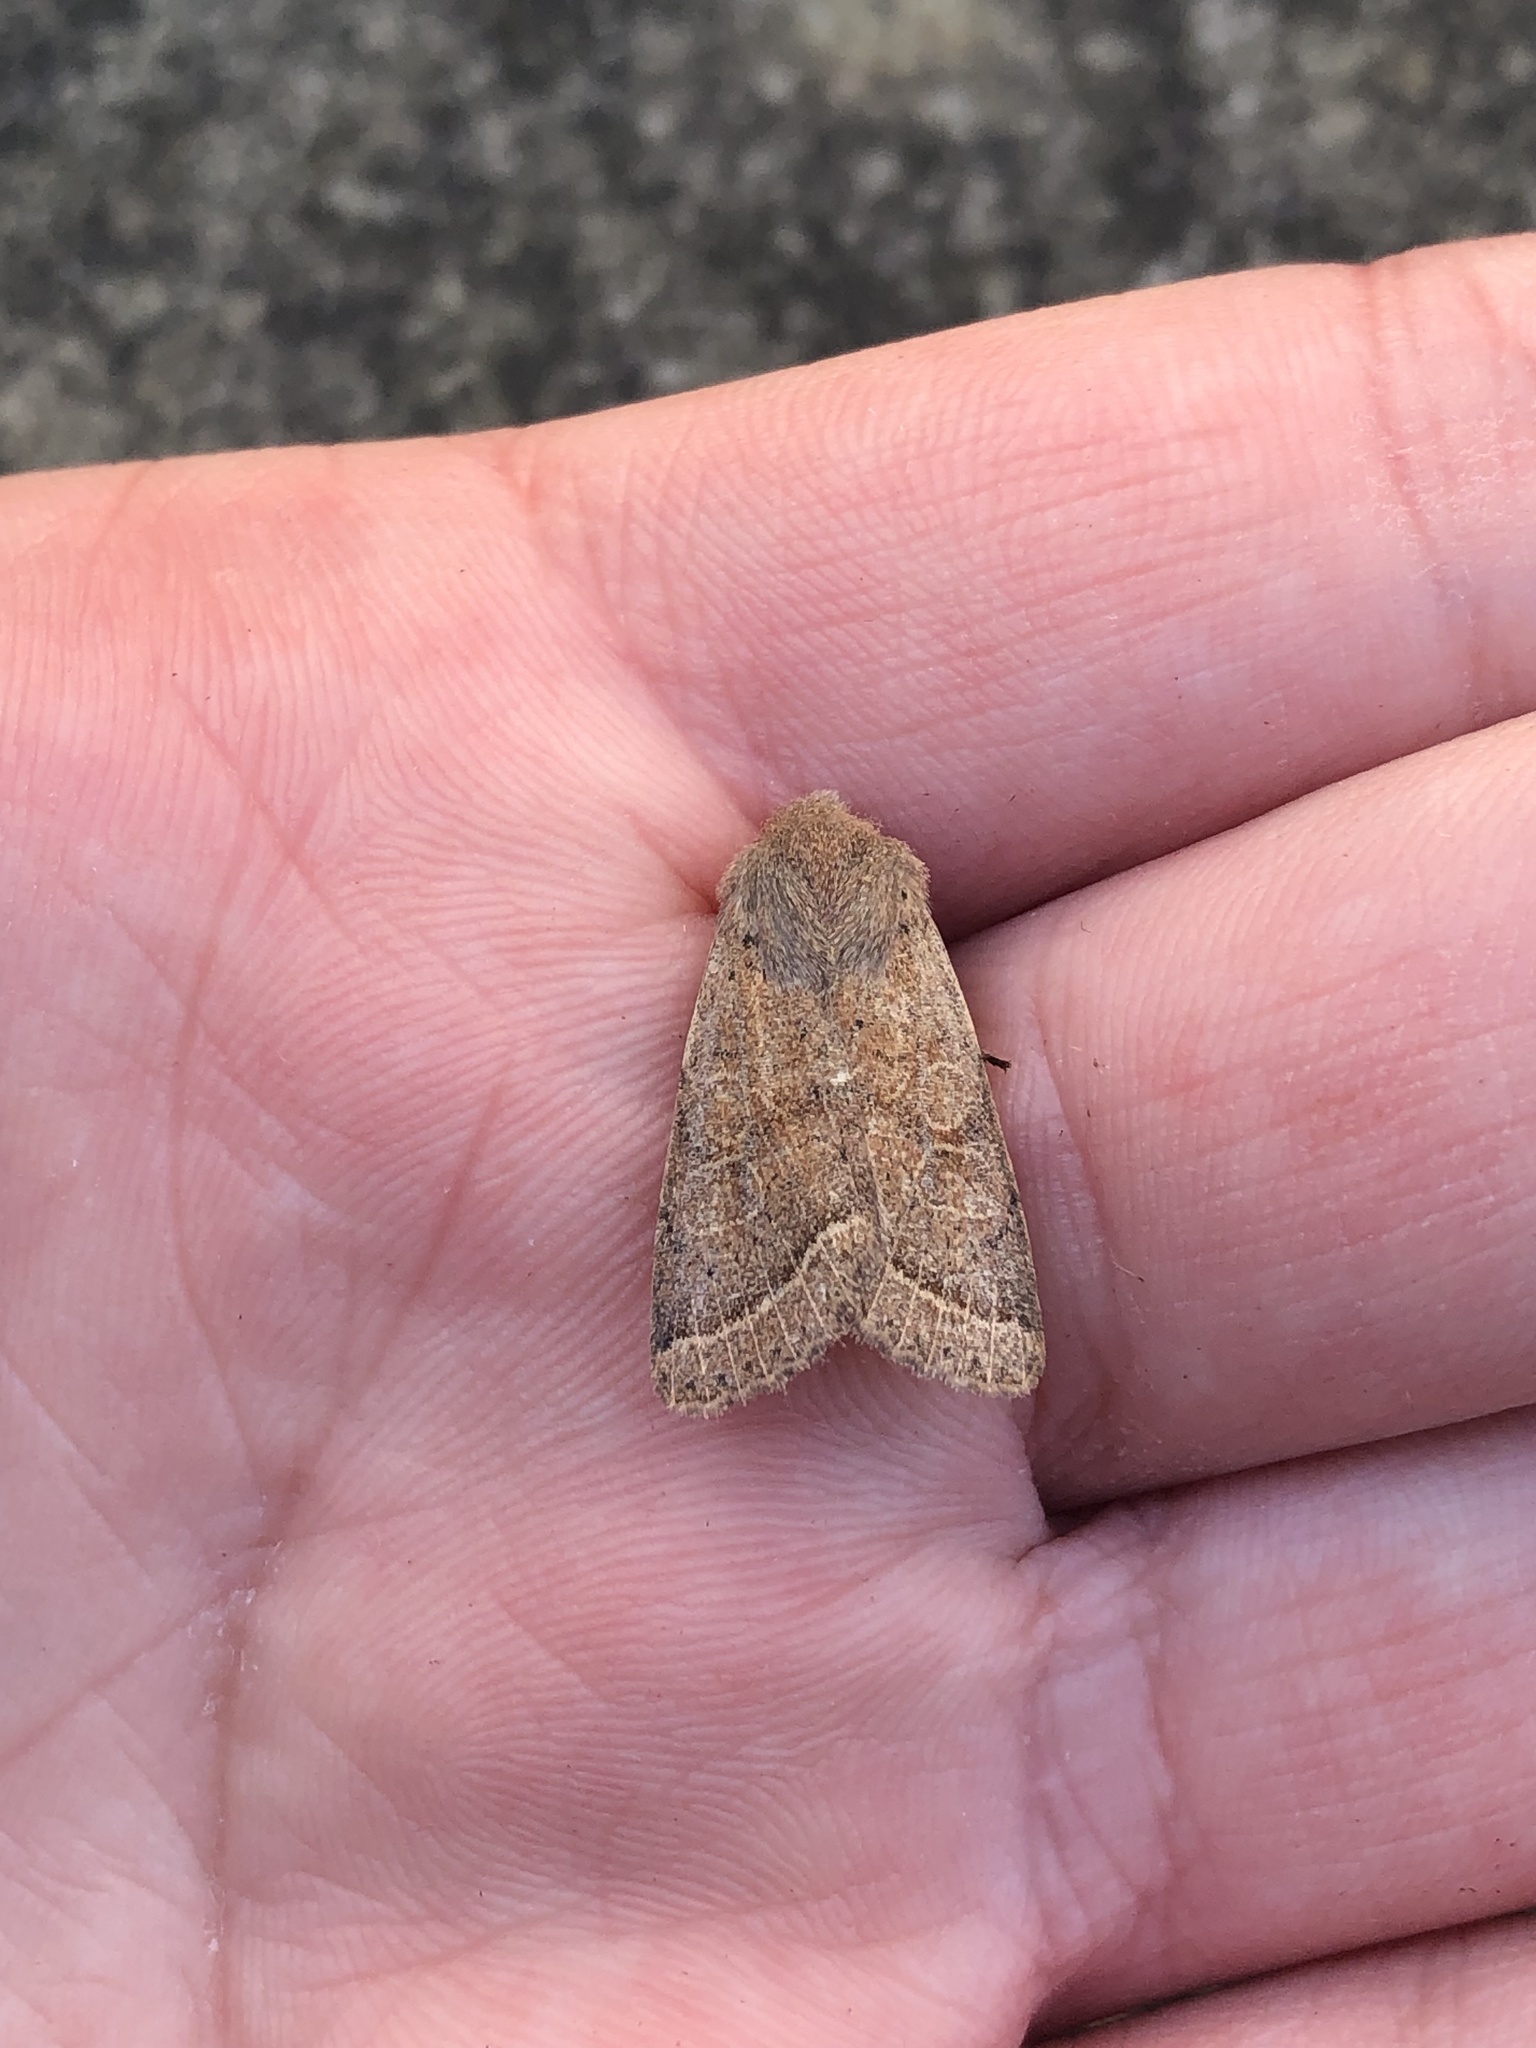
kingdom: Animalia
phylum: Arthropoda
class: Insecta
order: Lepidoptera
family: Noctuidae
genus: Orthosia
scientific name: Orthosia cerasi
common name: Common quaker
